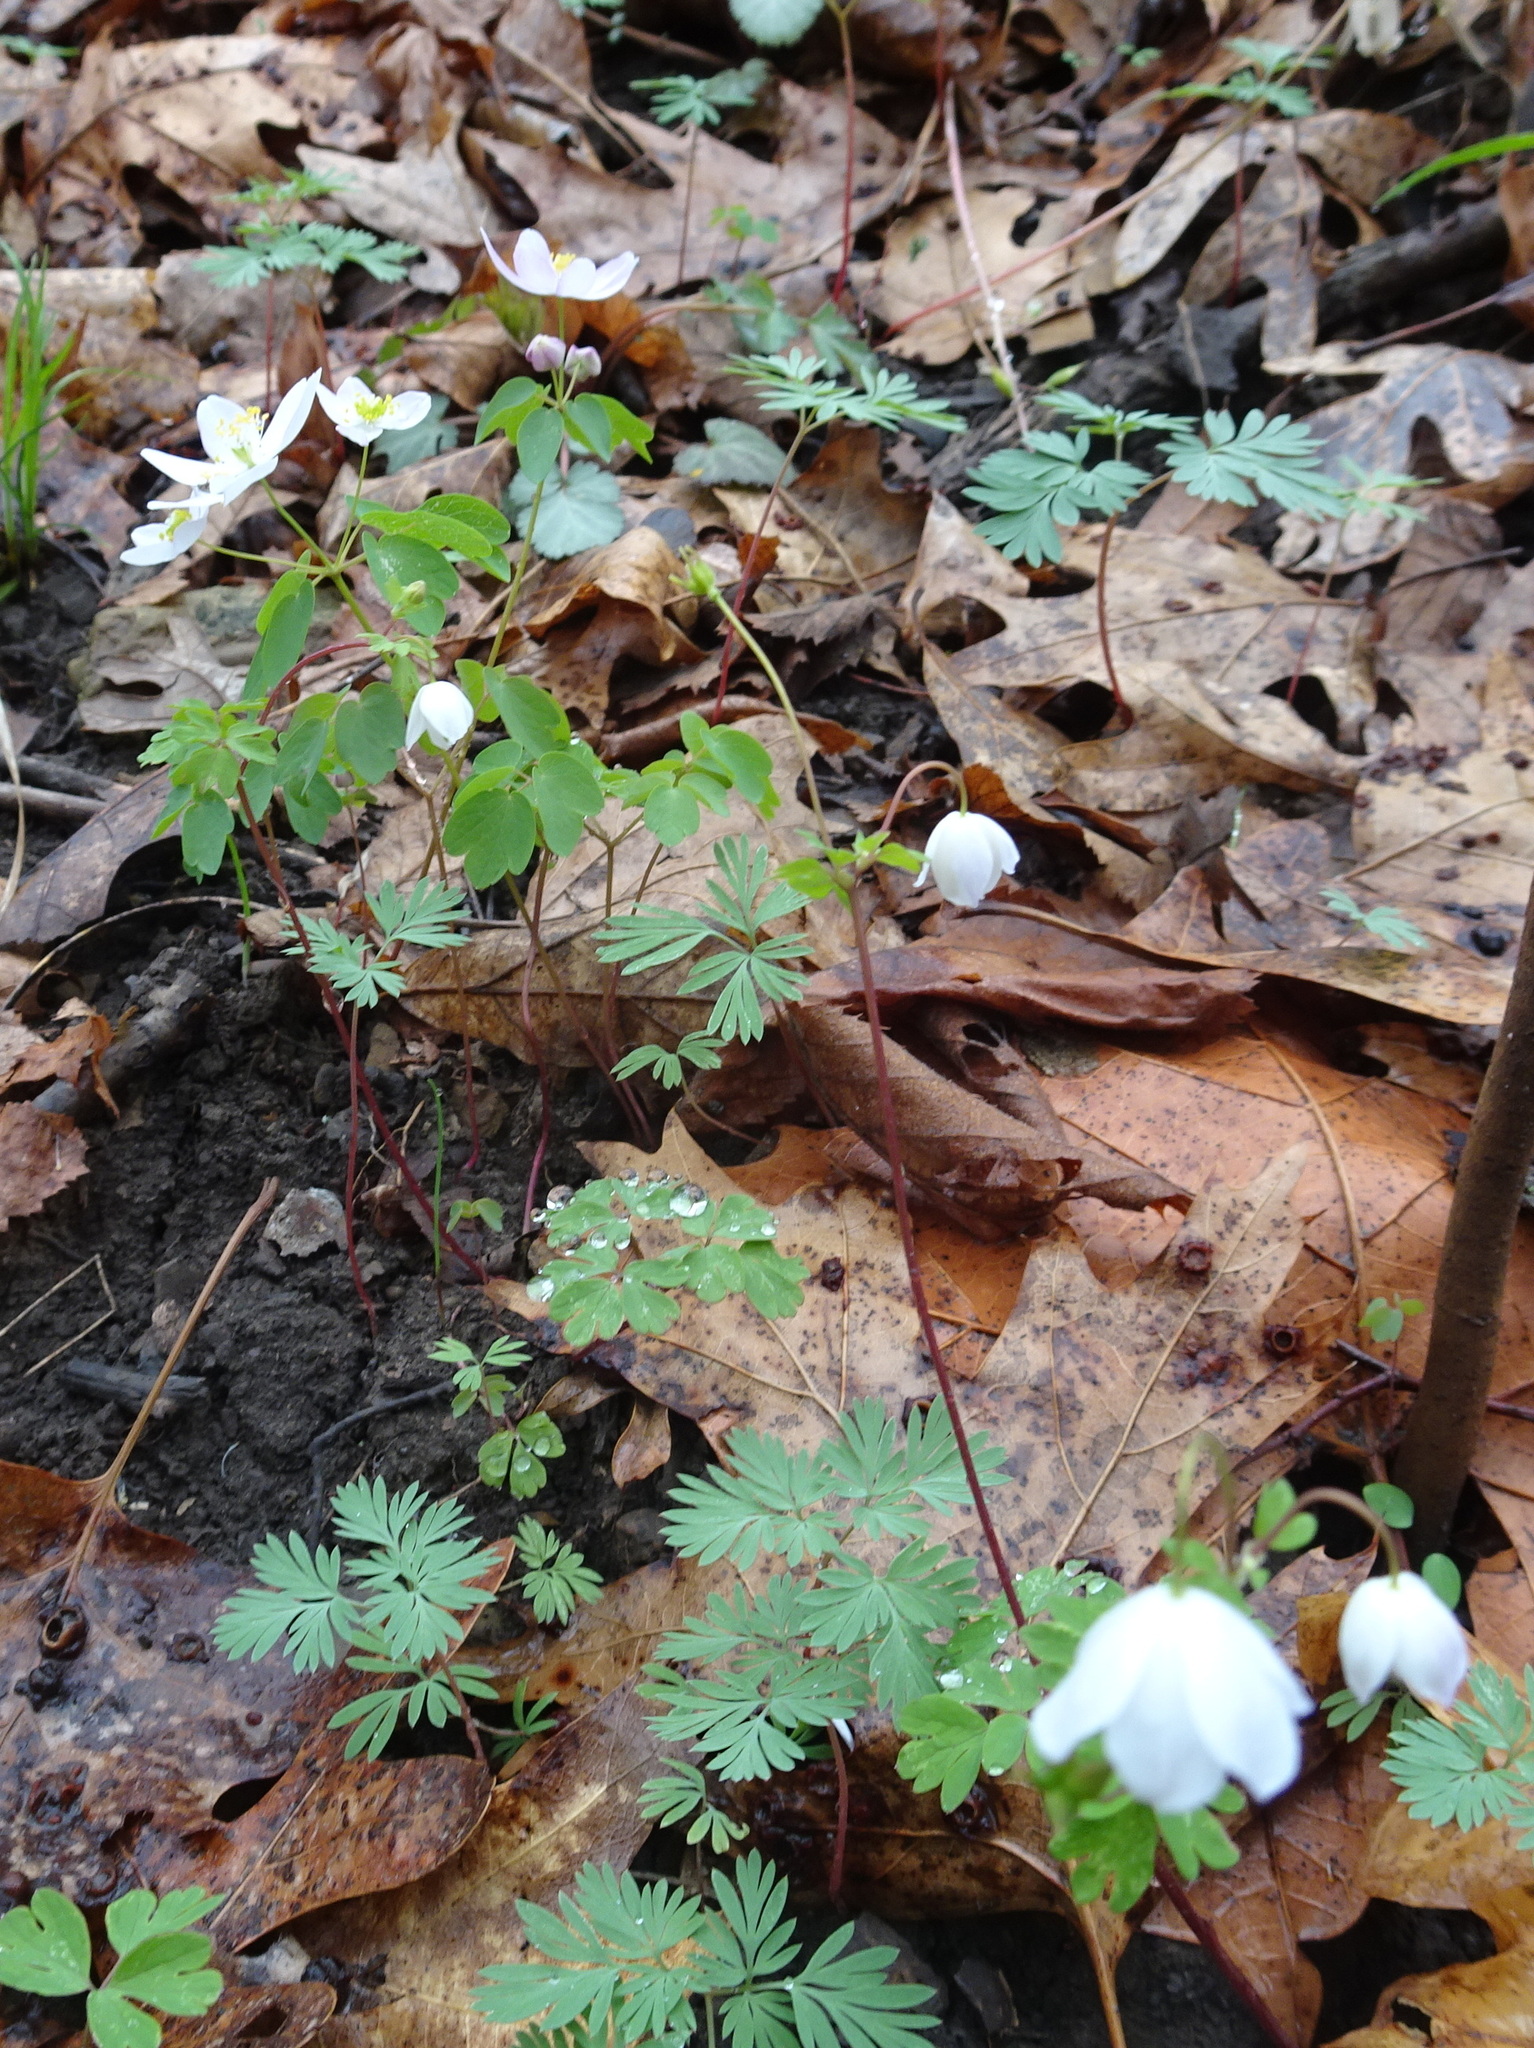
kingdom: Plantae
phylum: Tracheophyta
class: Magnoliopsida
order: Ranunculales
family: Ranunculaceae
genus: Thalictrum
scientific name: Thalictrum thalictroides
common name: Rue-anemone
